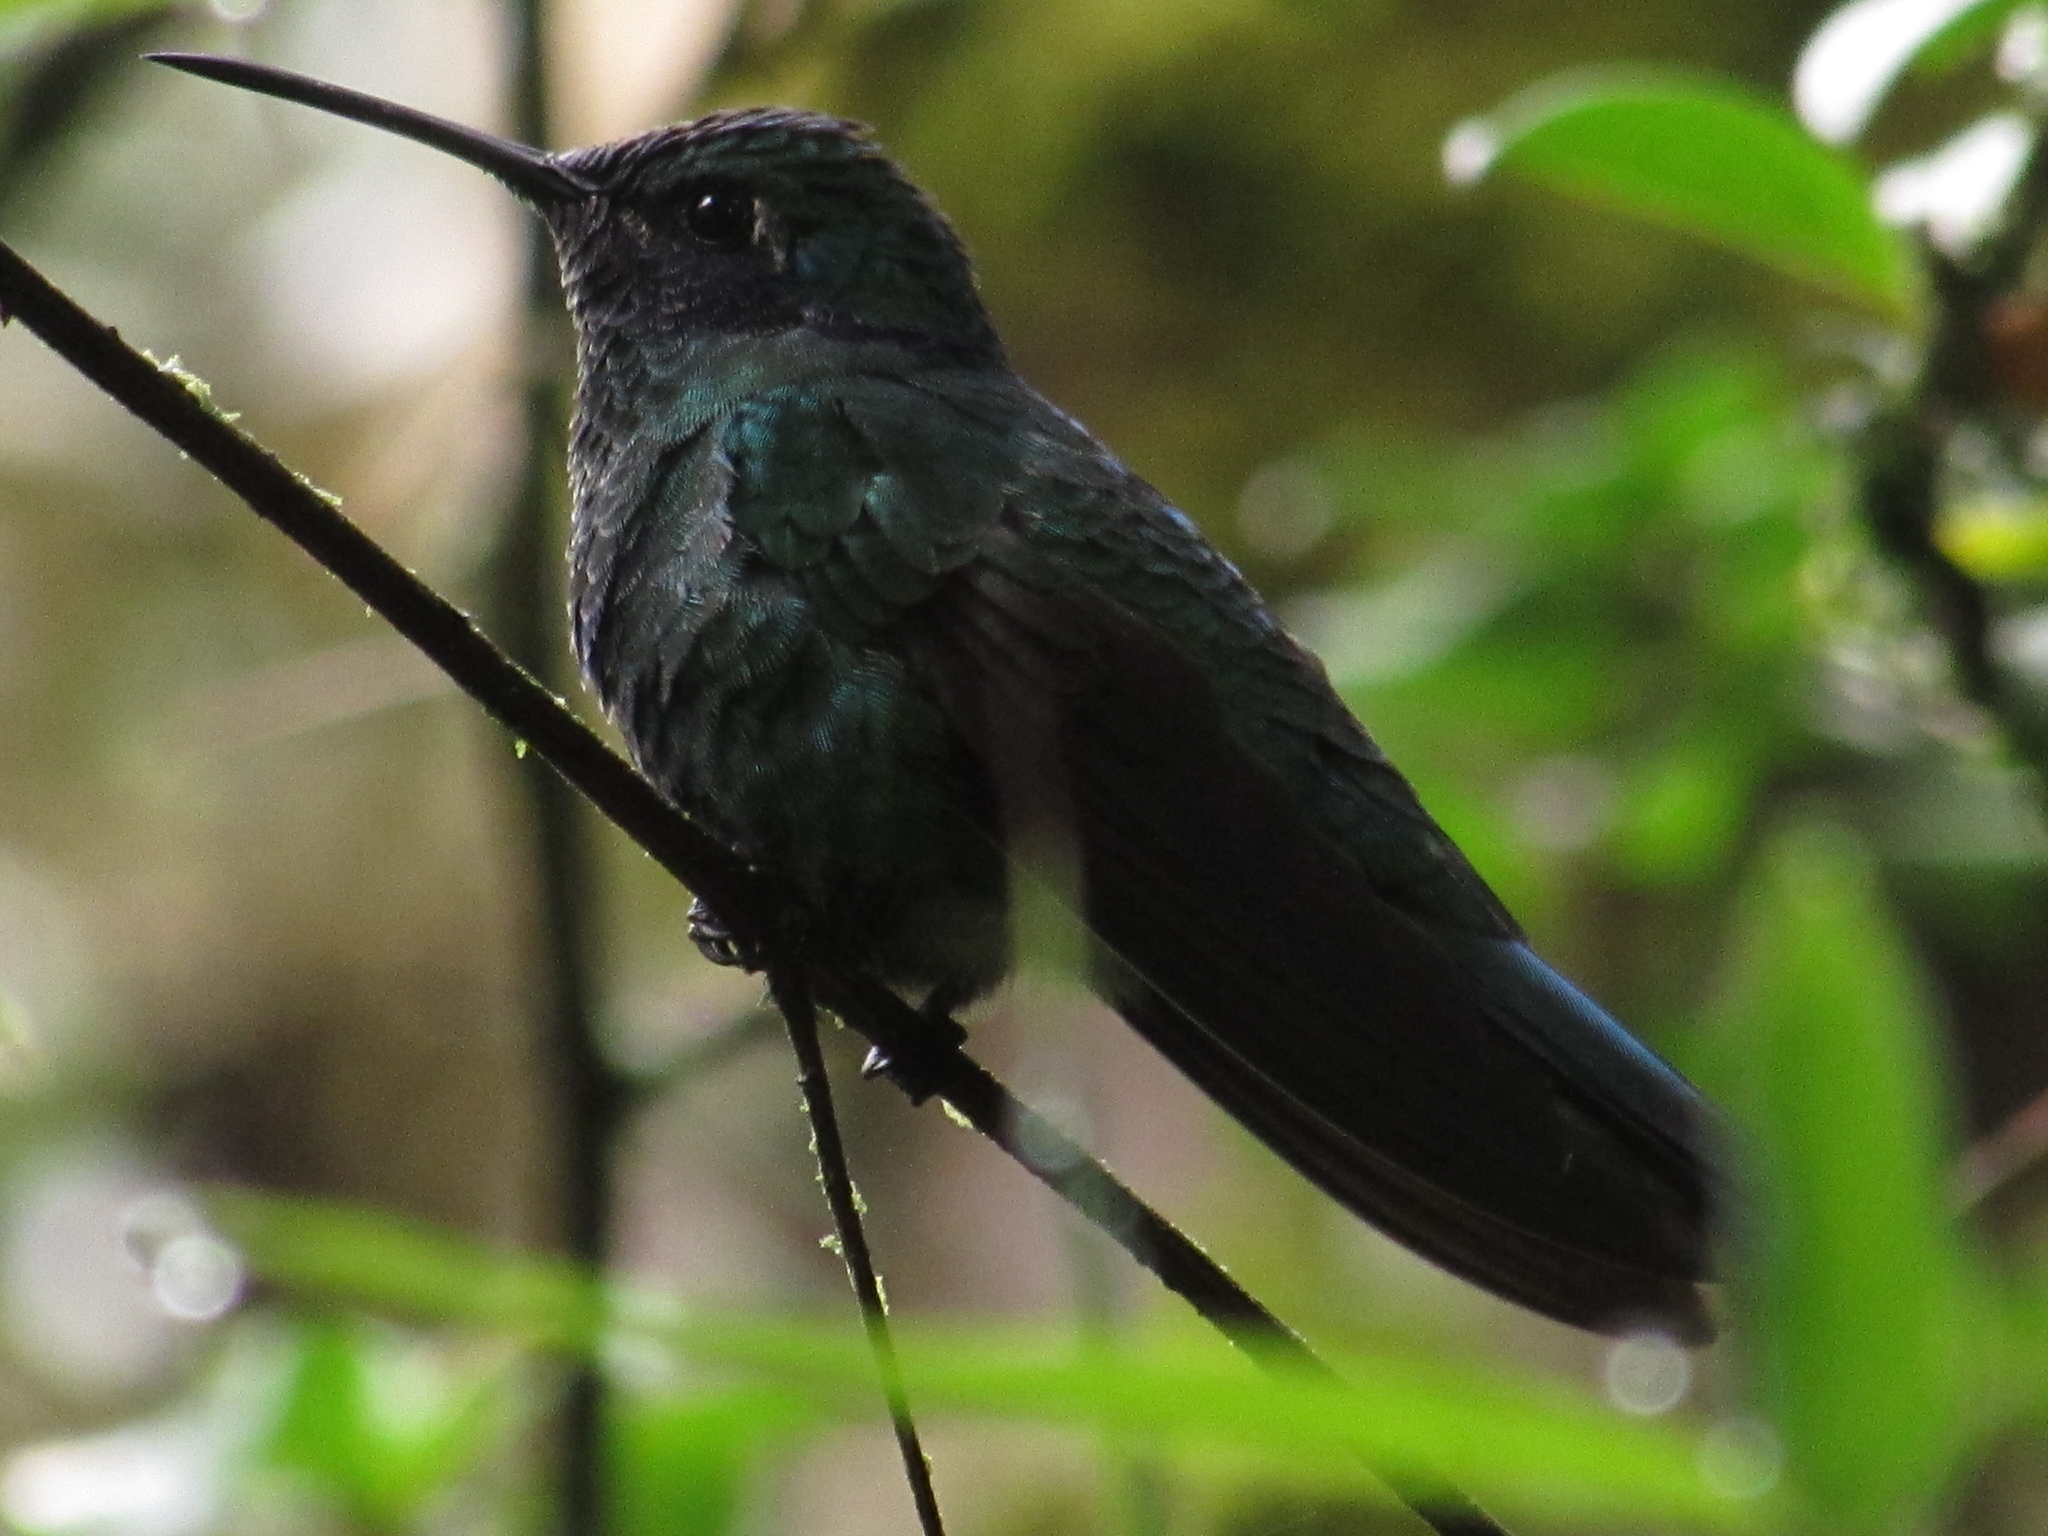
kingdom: Animalia
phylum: Chordata
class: Aves
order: Apodiformes
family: Trochilidae
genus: Colibri
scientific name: Colibri cyanotus
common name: Lesser violetear
